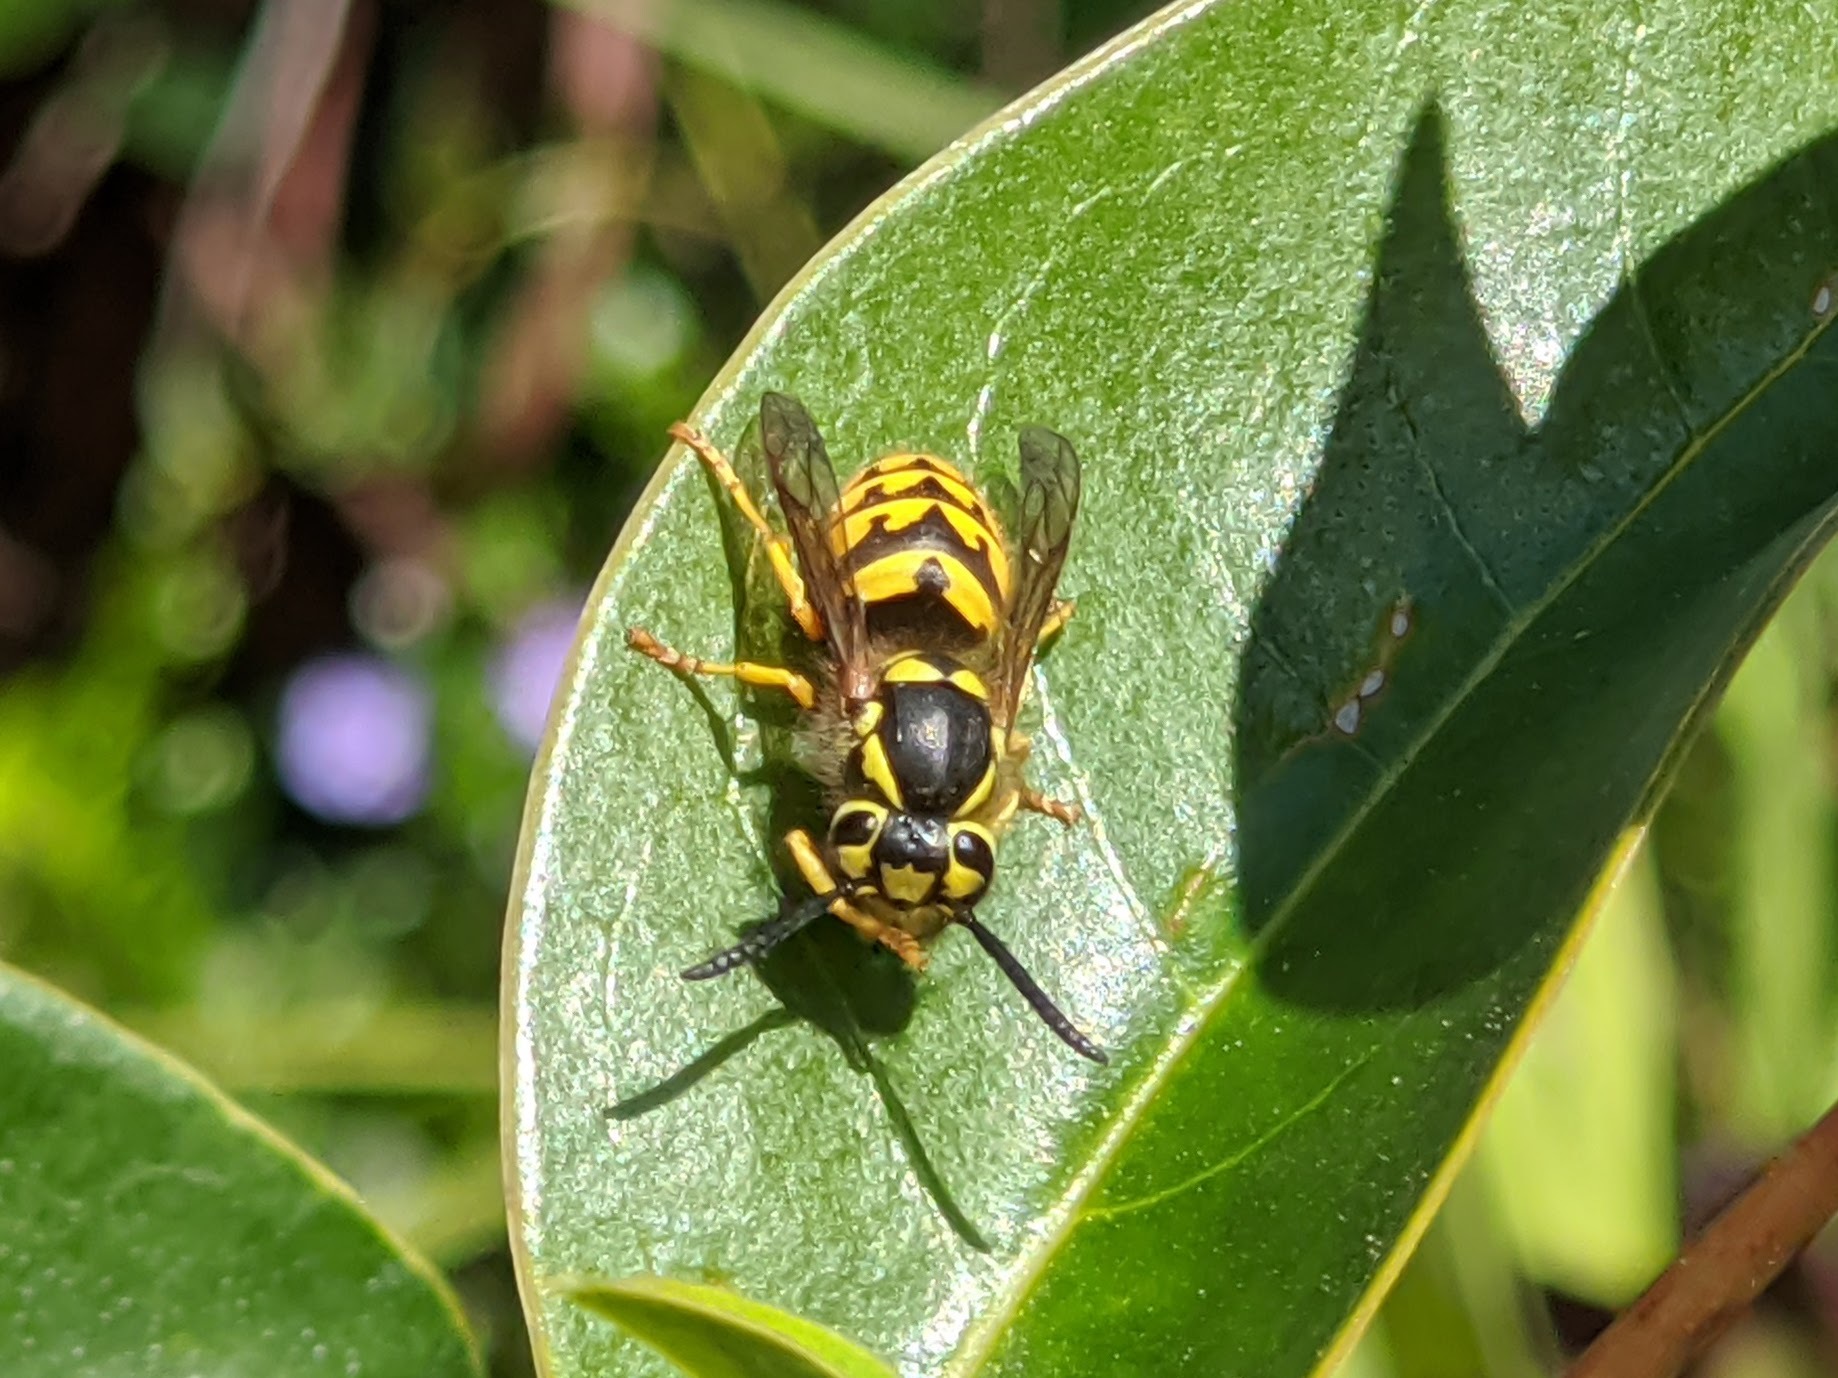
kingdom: Animalia
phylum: Arthropoda
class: Insecta
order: Hymenoptera
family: Vespidae
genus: Vespula
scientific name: Vespula pensylvanica
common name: Western yellowjacket
